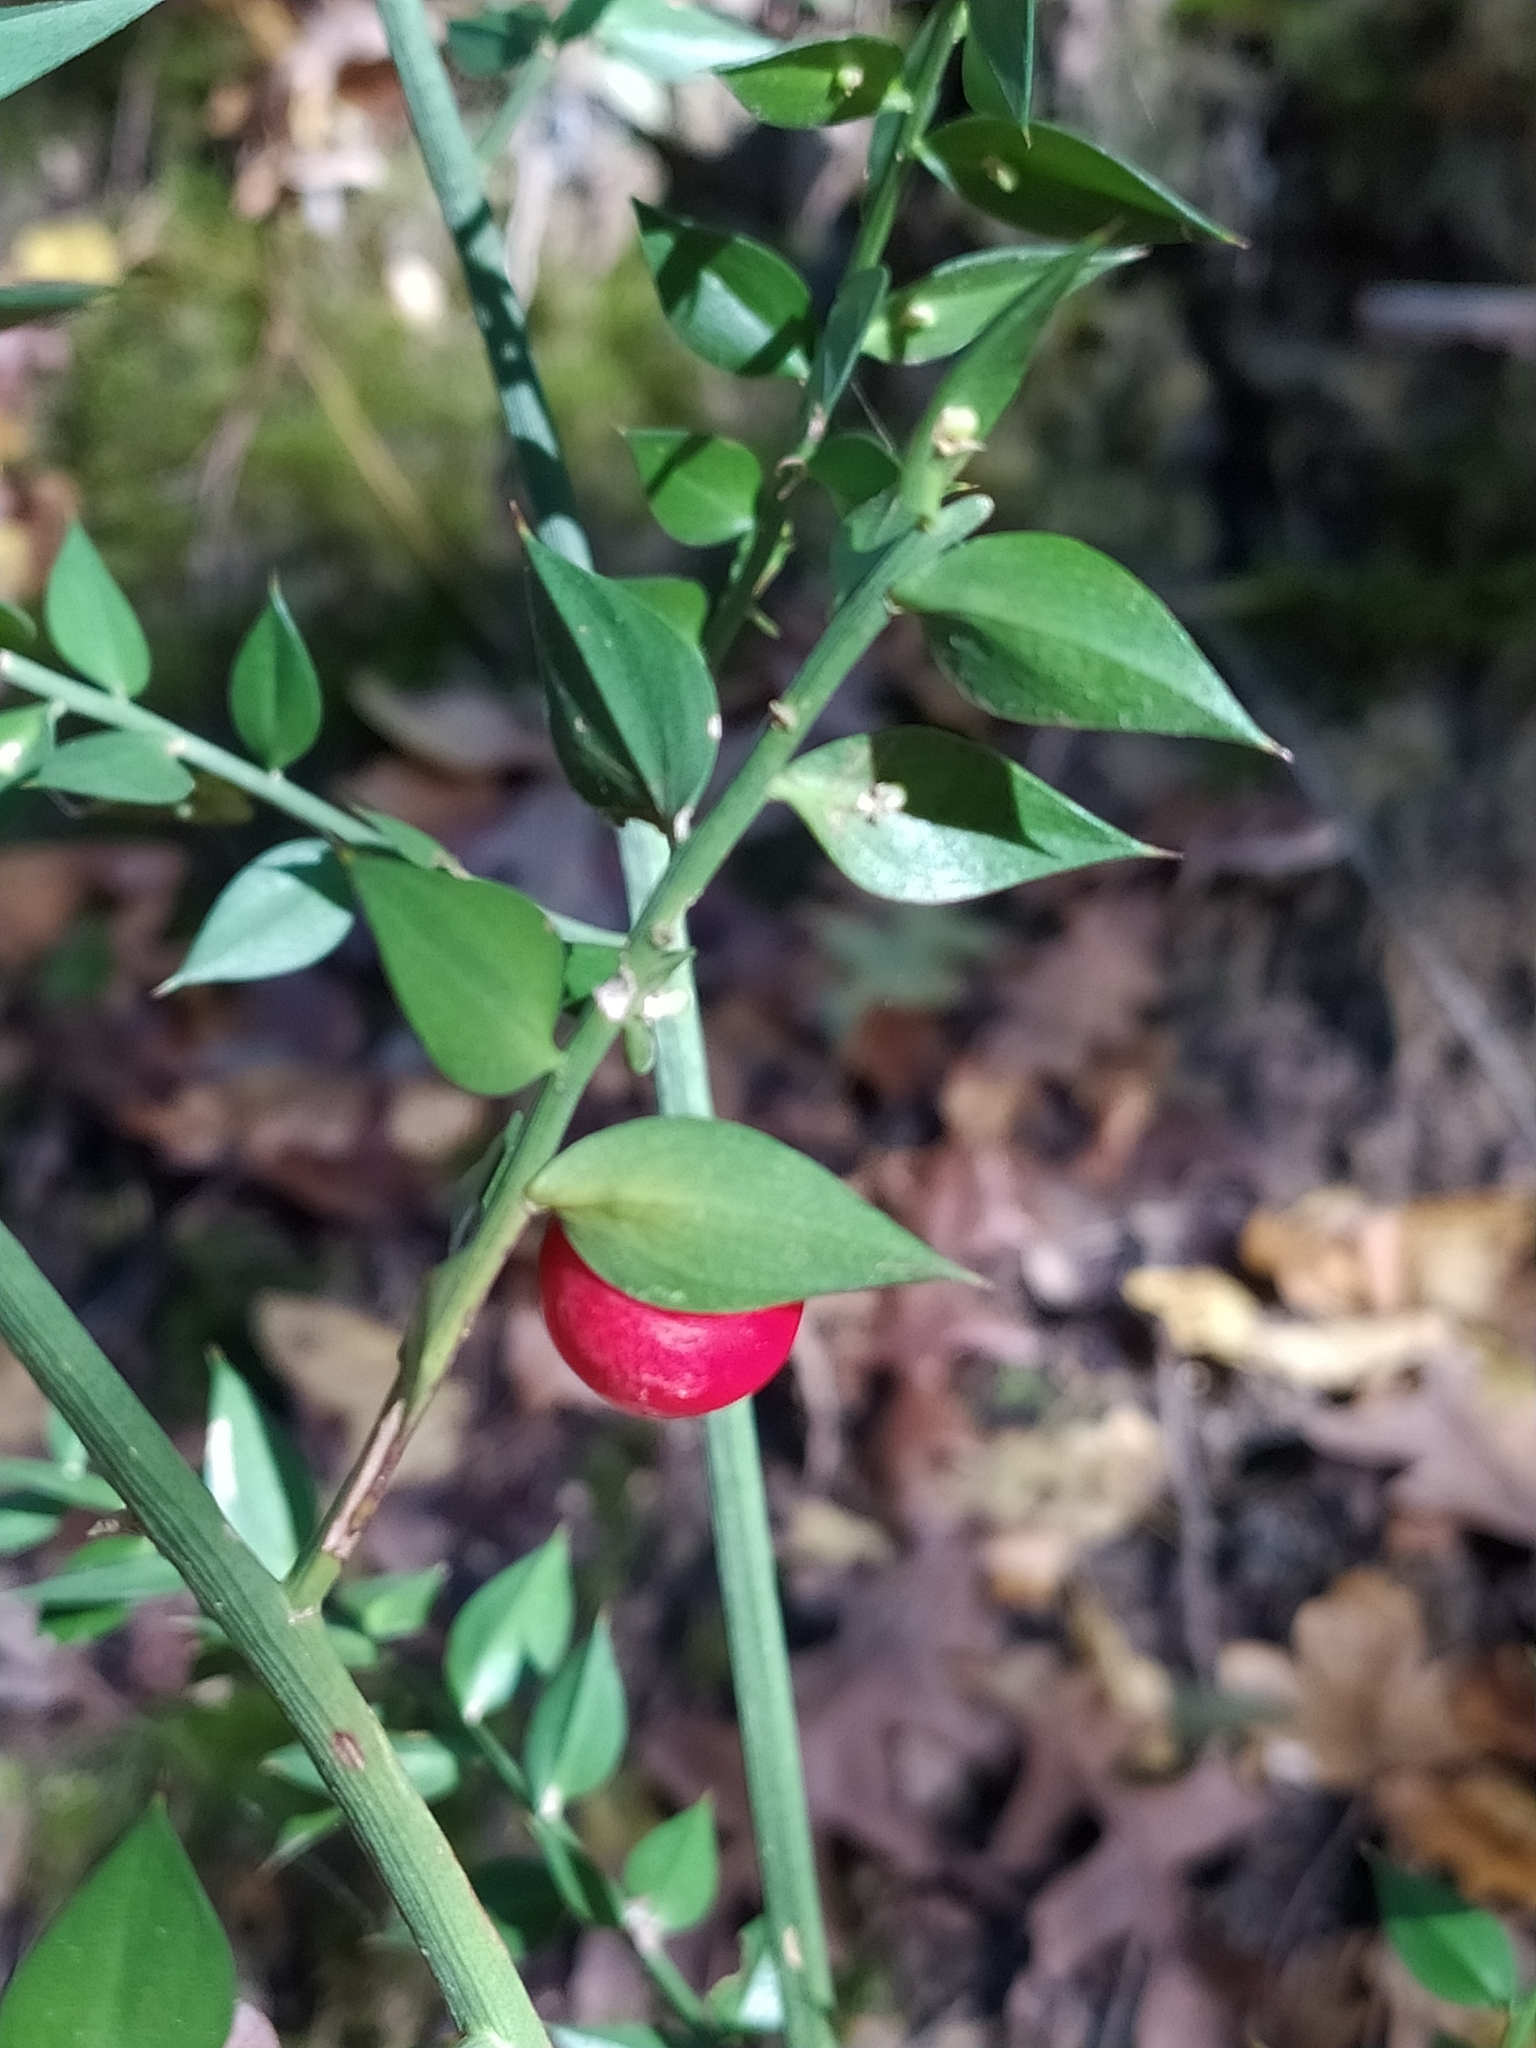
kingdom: Plantae
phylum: Tracheophyta
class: Liliopsida
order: Asparagales
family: Asparagaceae
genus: Ruscus
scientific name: Ruscus aculeatus
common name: Butcher's-broom
